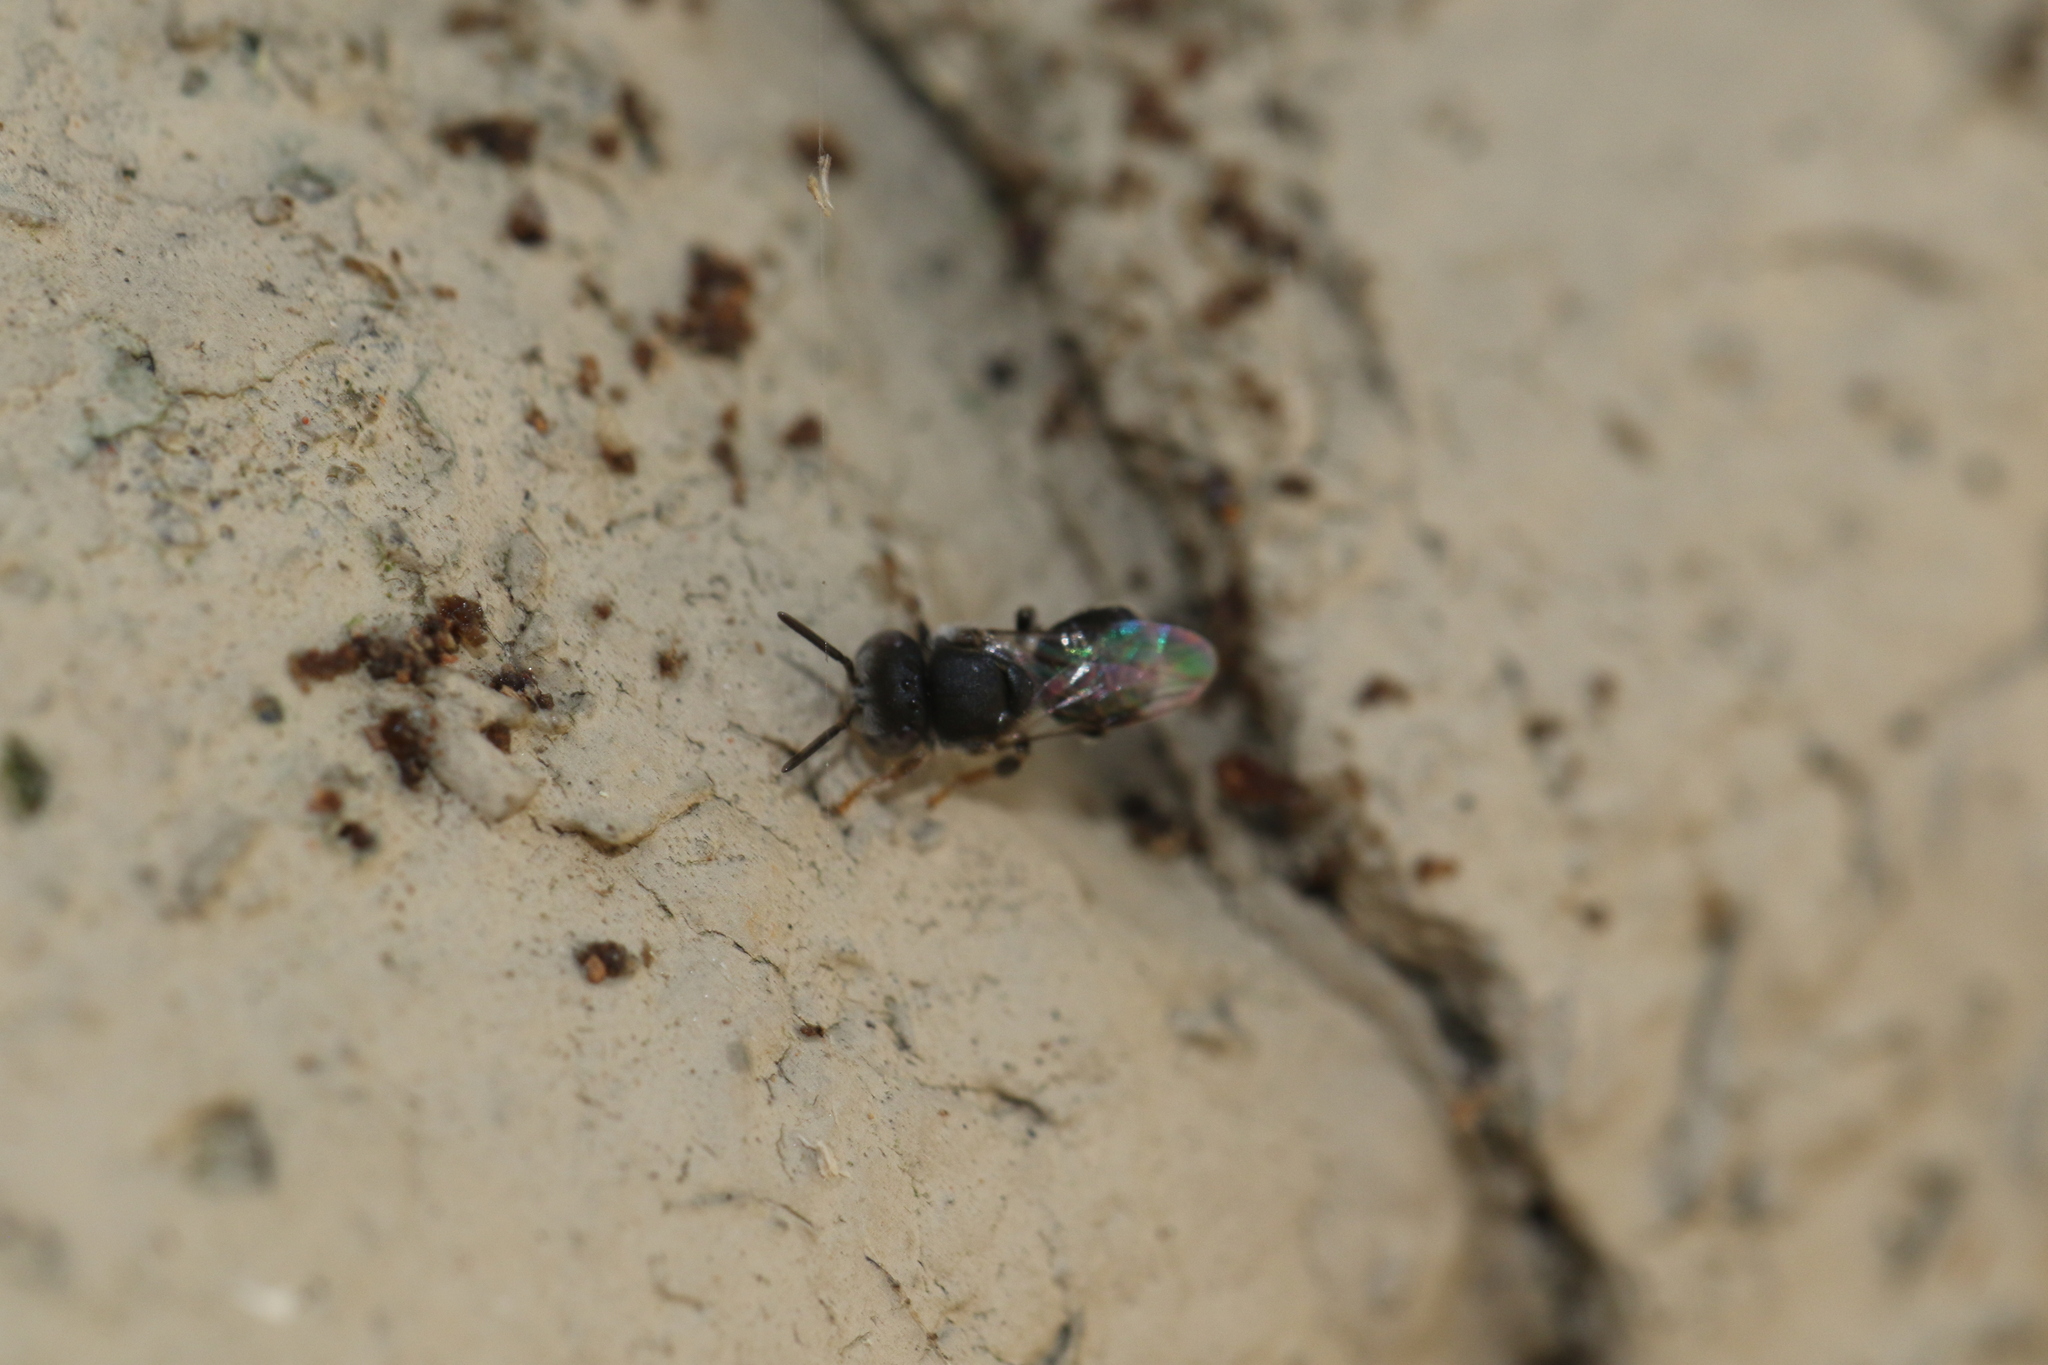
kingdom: Animalia
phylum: Arthropoda
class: Insecta
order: Hymenoptera
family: Apidae
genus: Friesella
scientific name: Friesella schrottkyi
